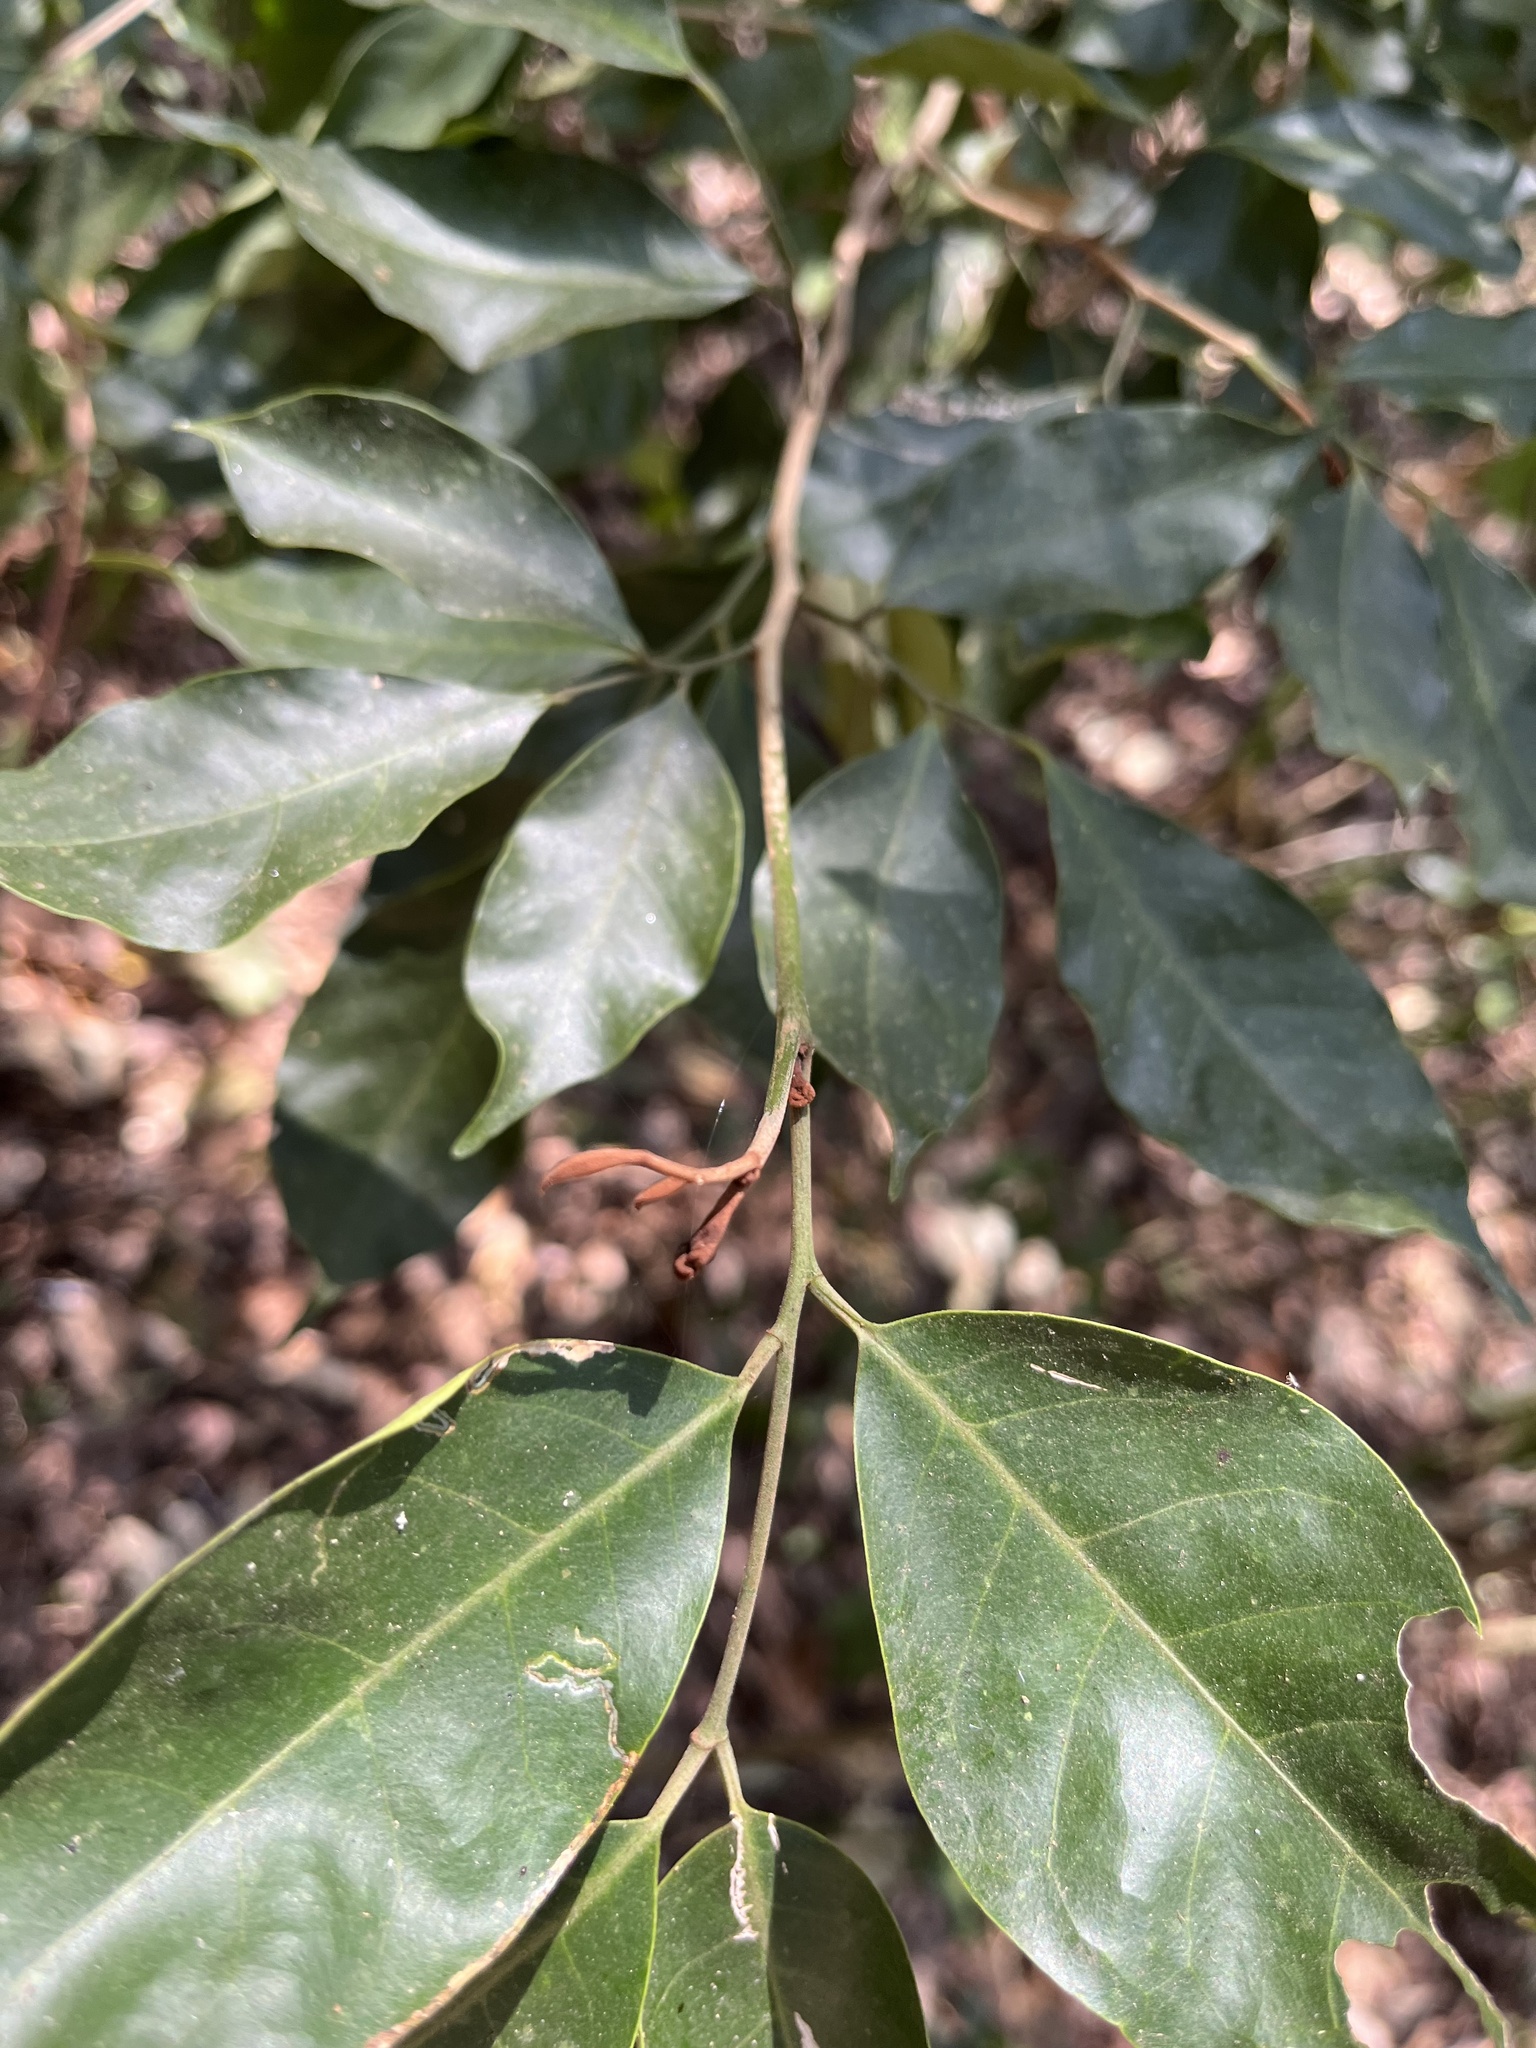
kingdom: Plantae
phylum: Tracheophyta
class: Magnoliopsida
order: Sapindales
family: Rutaceae
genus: Glycosmis
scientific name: Glycosmis parviflora
